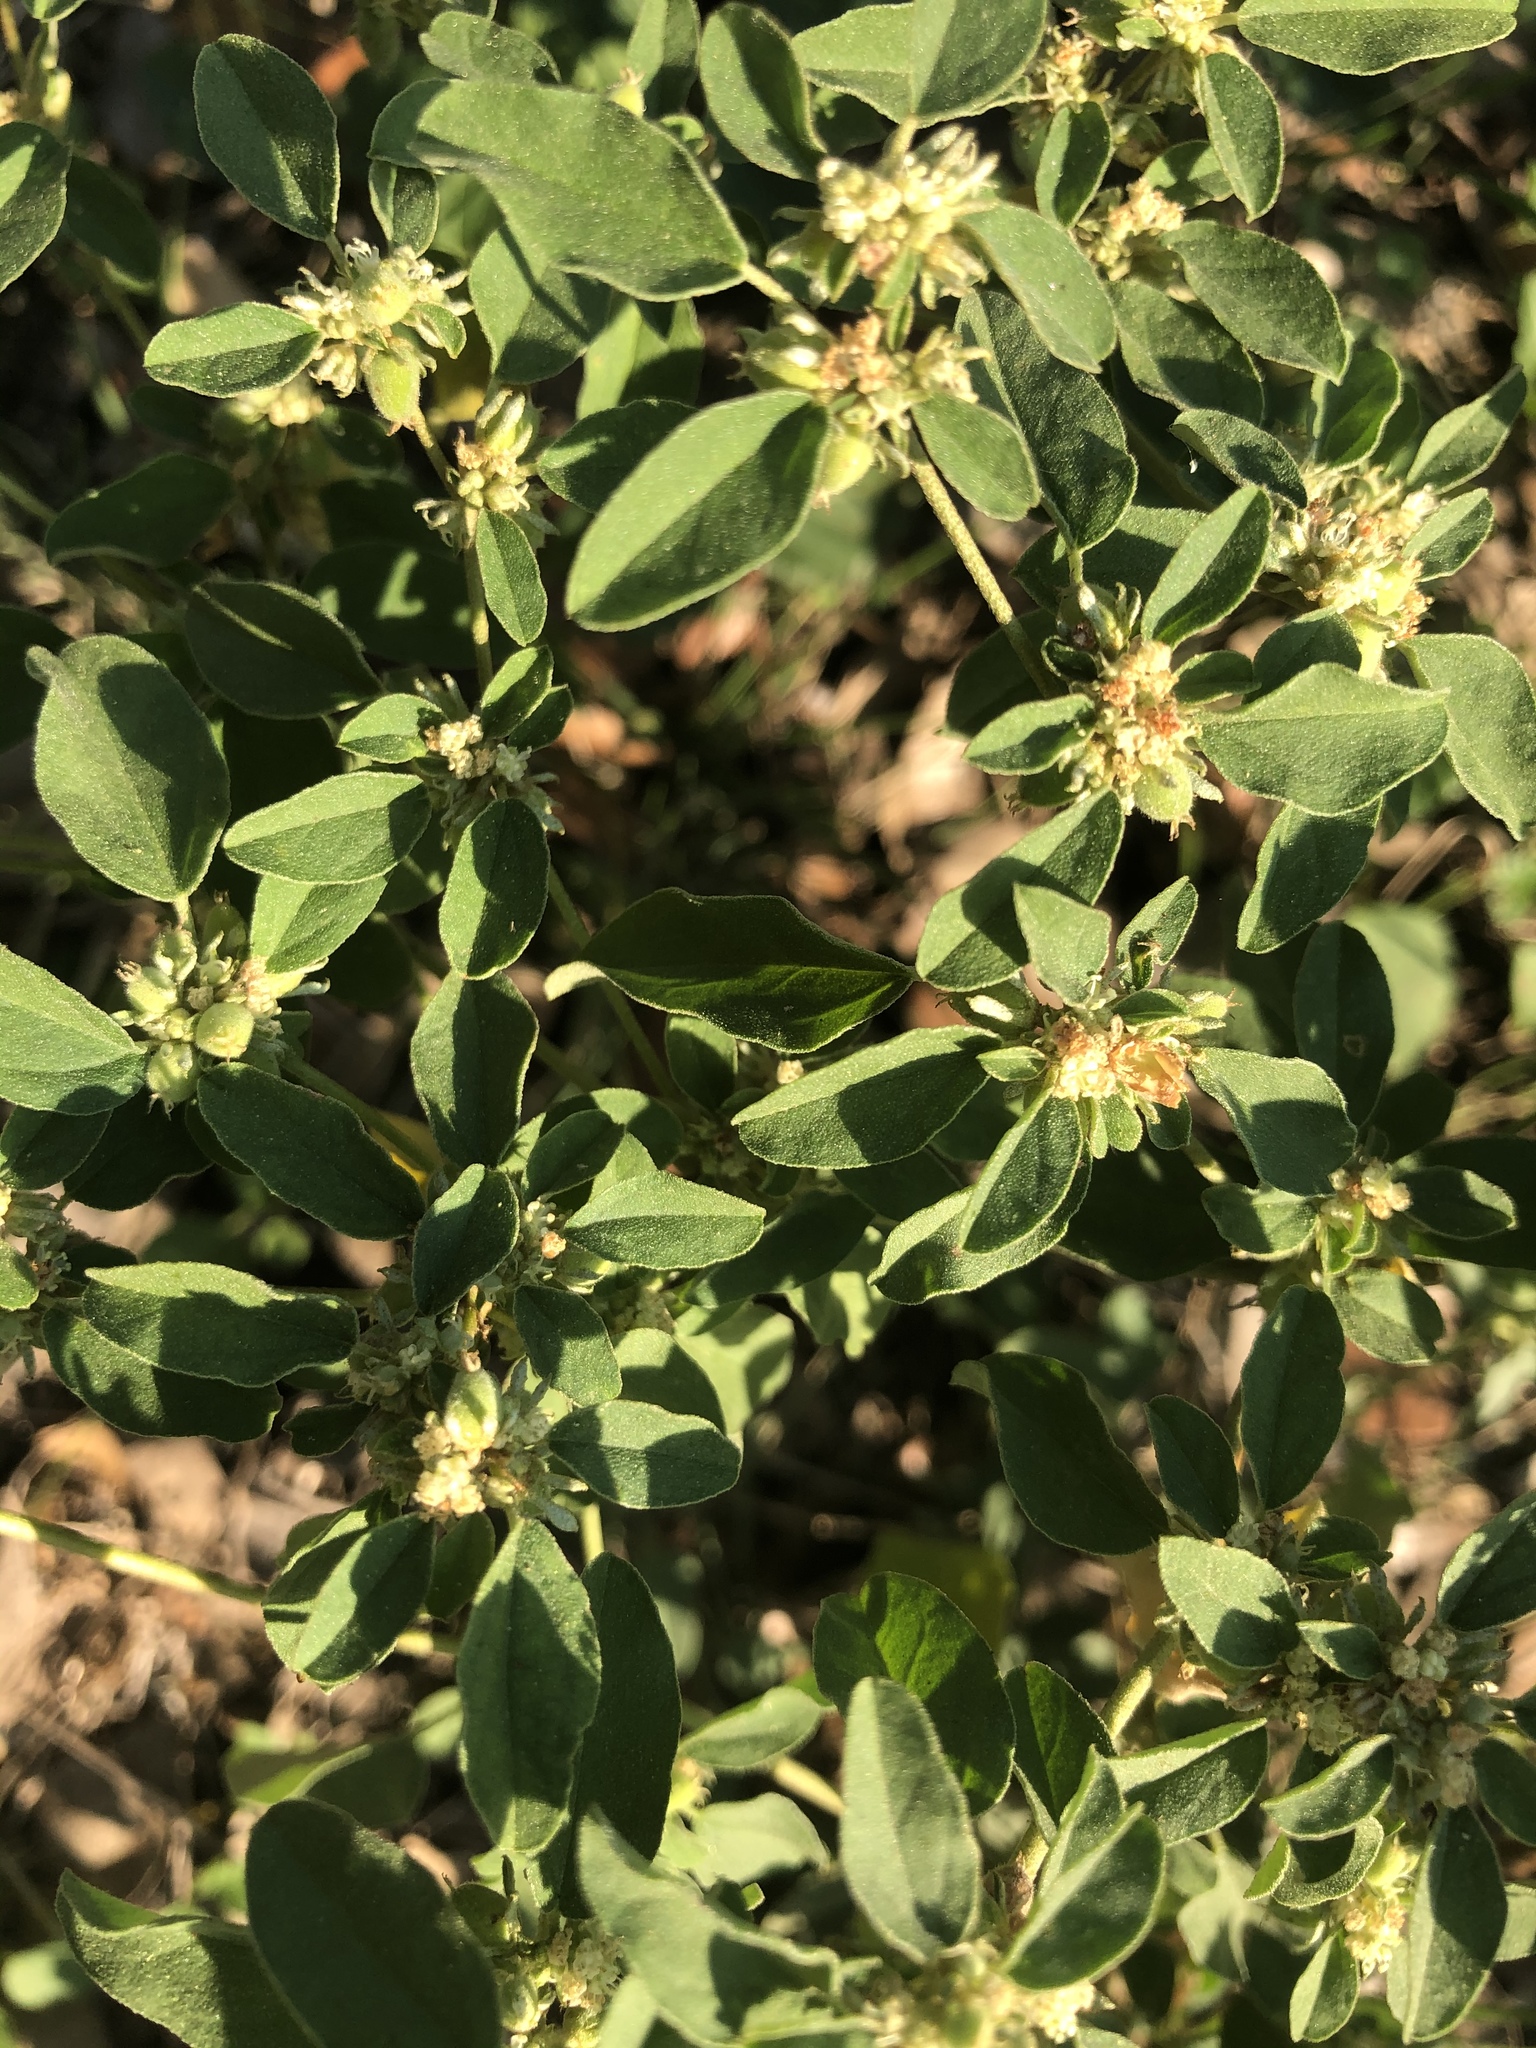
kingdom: Plantae
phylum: Tracheophyta
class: Magnoliopsida
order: Malpighiales
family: Euphorbiaceae
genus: Croton
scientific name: Croton monanthogynus
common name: One-seed croton
